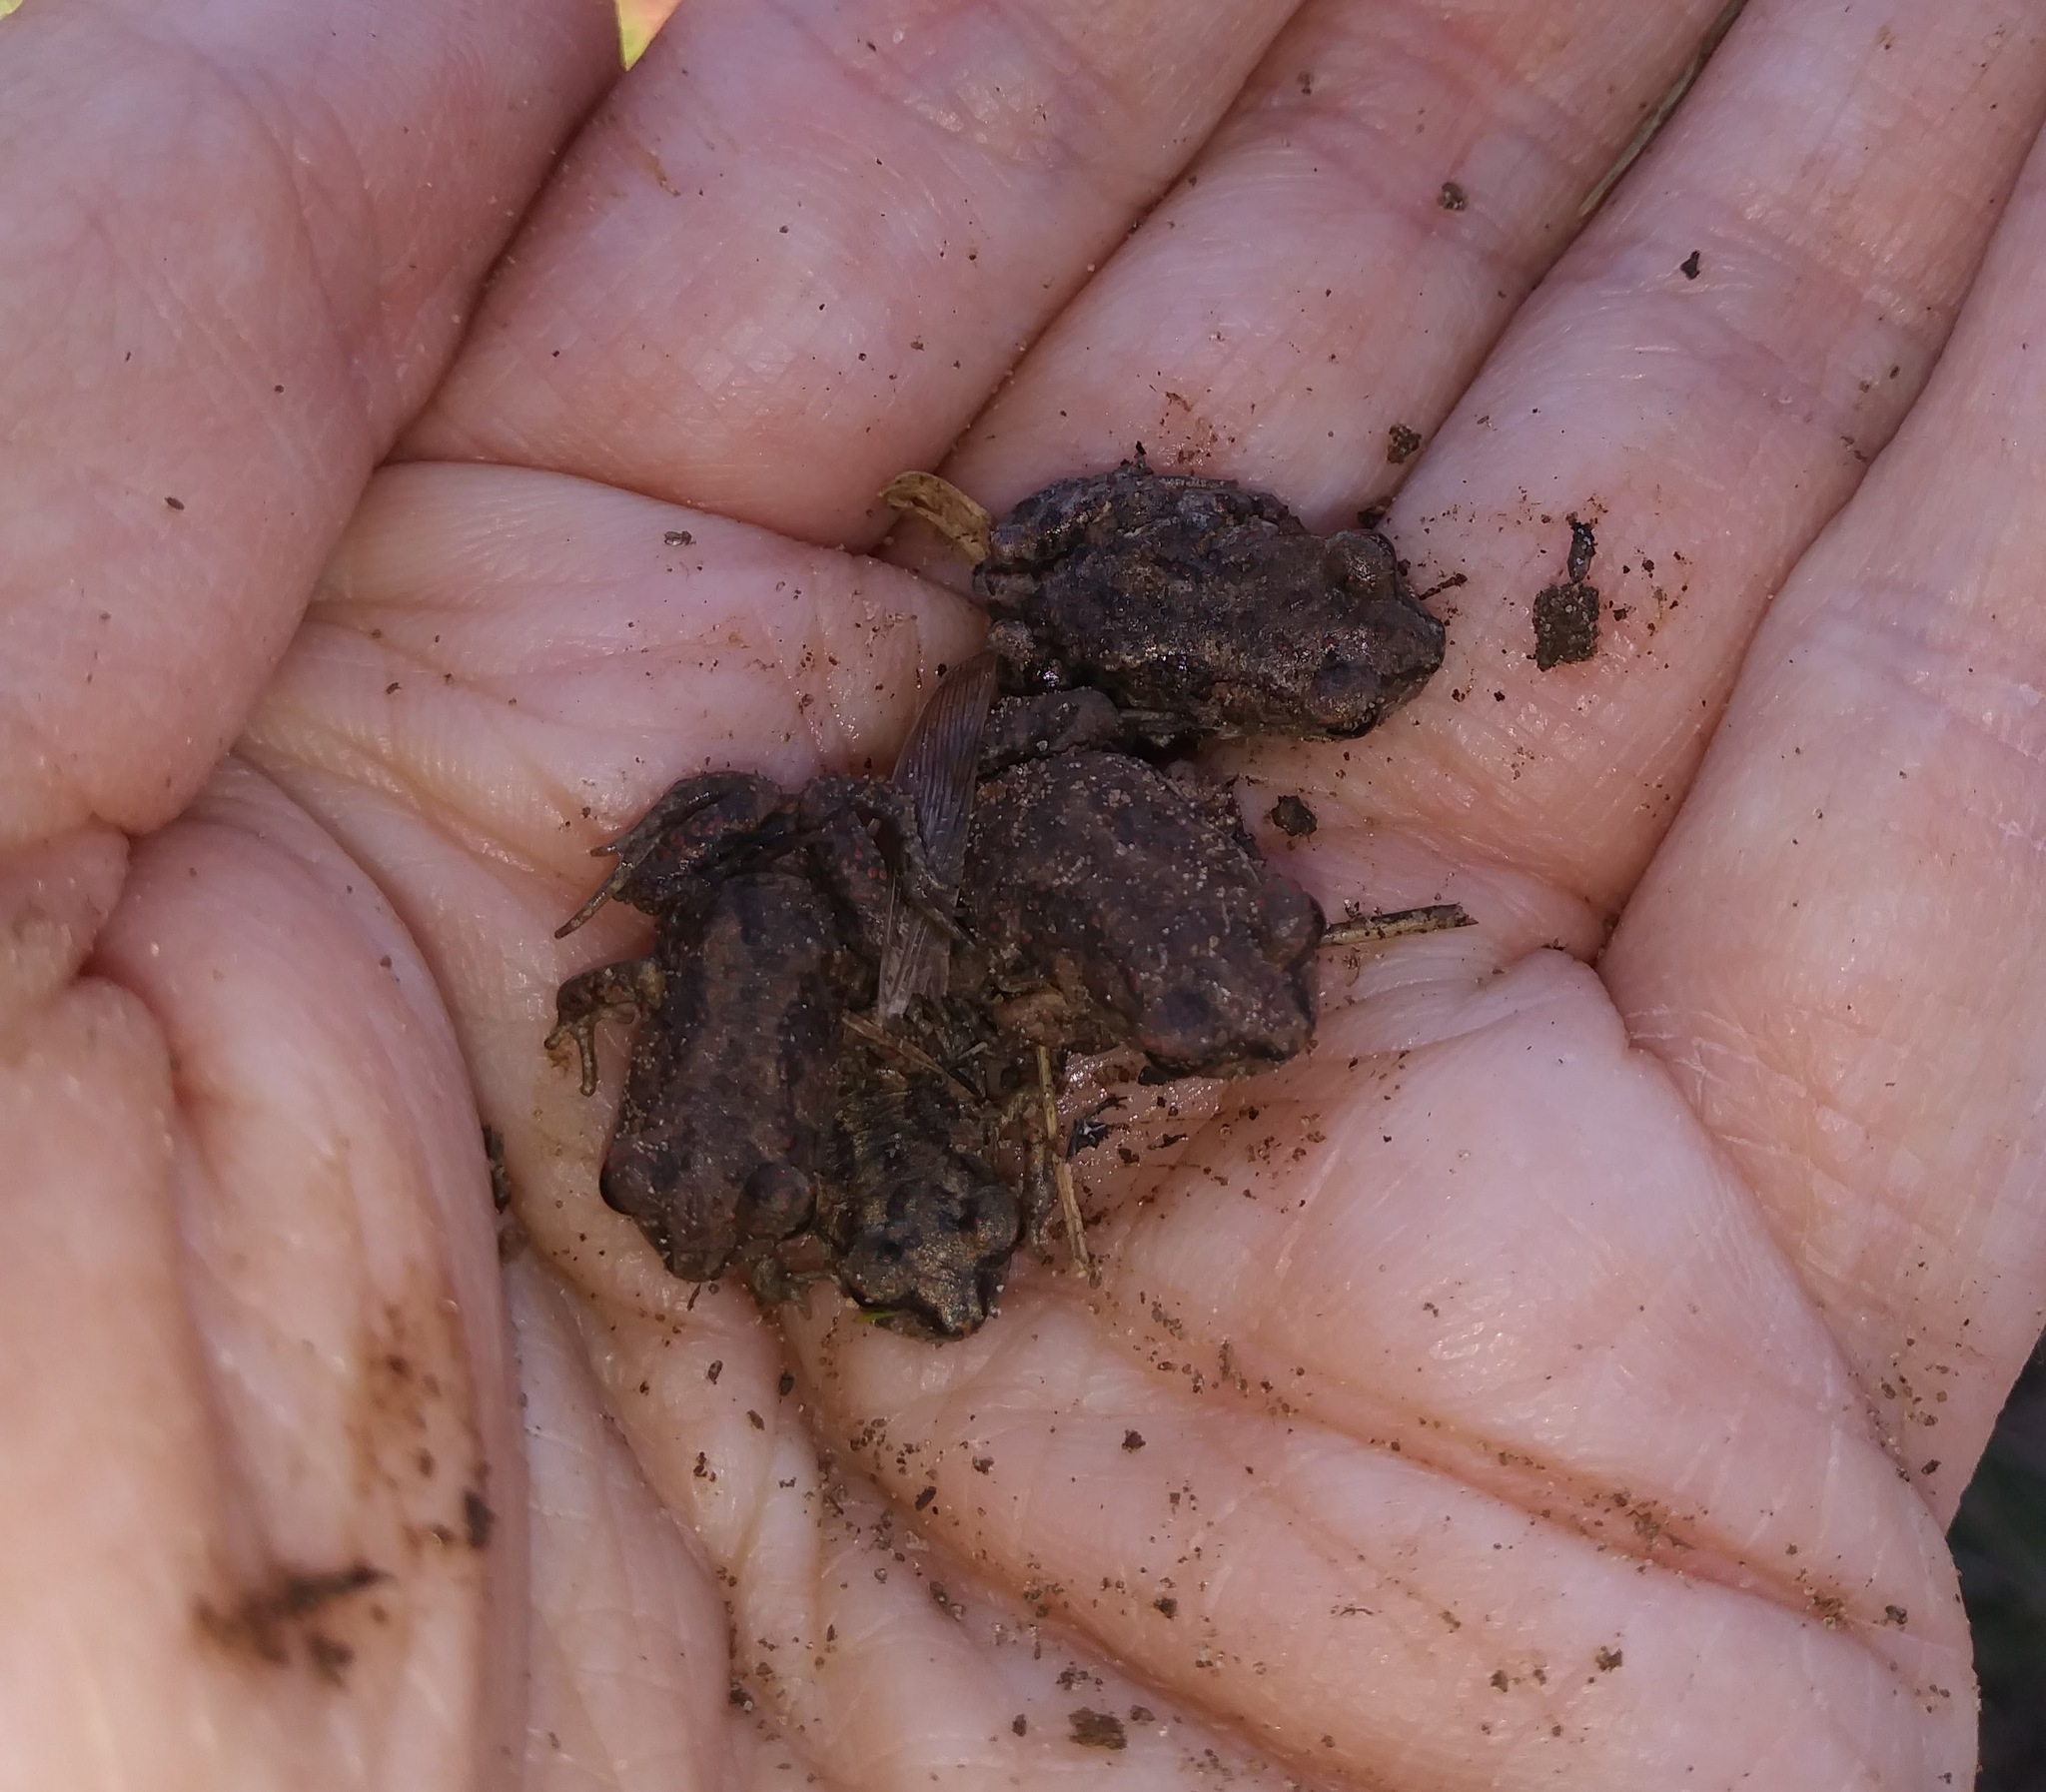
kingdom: Animalia
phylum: Chordata
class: Amphibia
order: Anura
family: Scaphiopodidae
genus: Scaphiopus
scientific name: Scaphiopus holbrookii
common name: Eastern spadefoot toad
